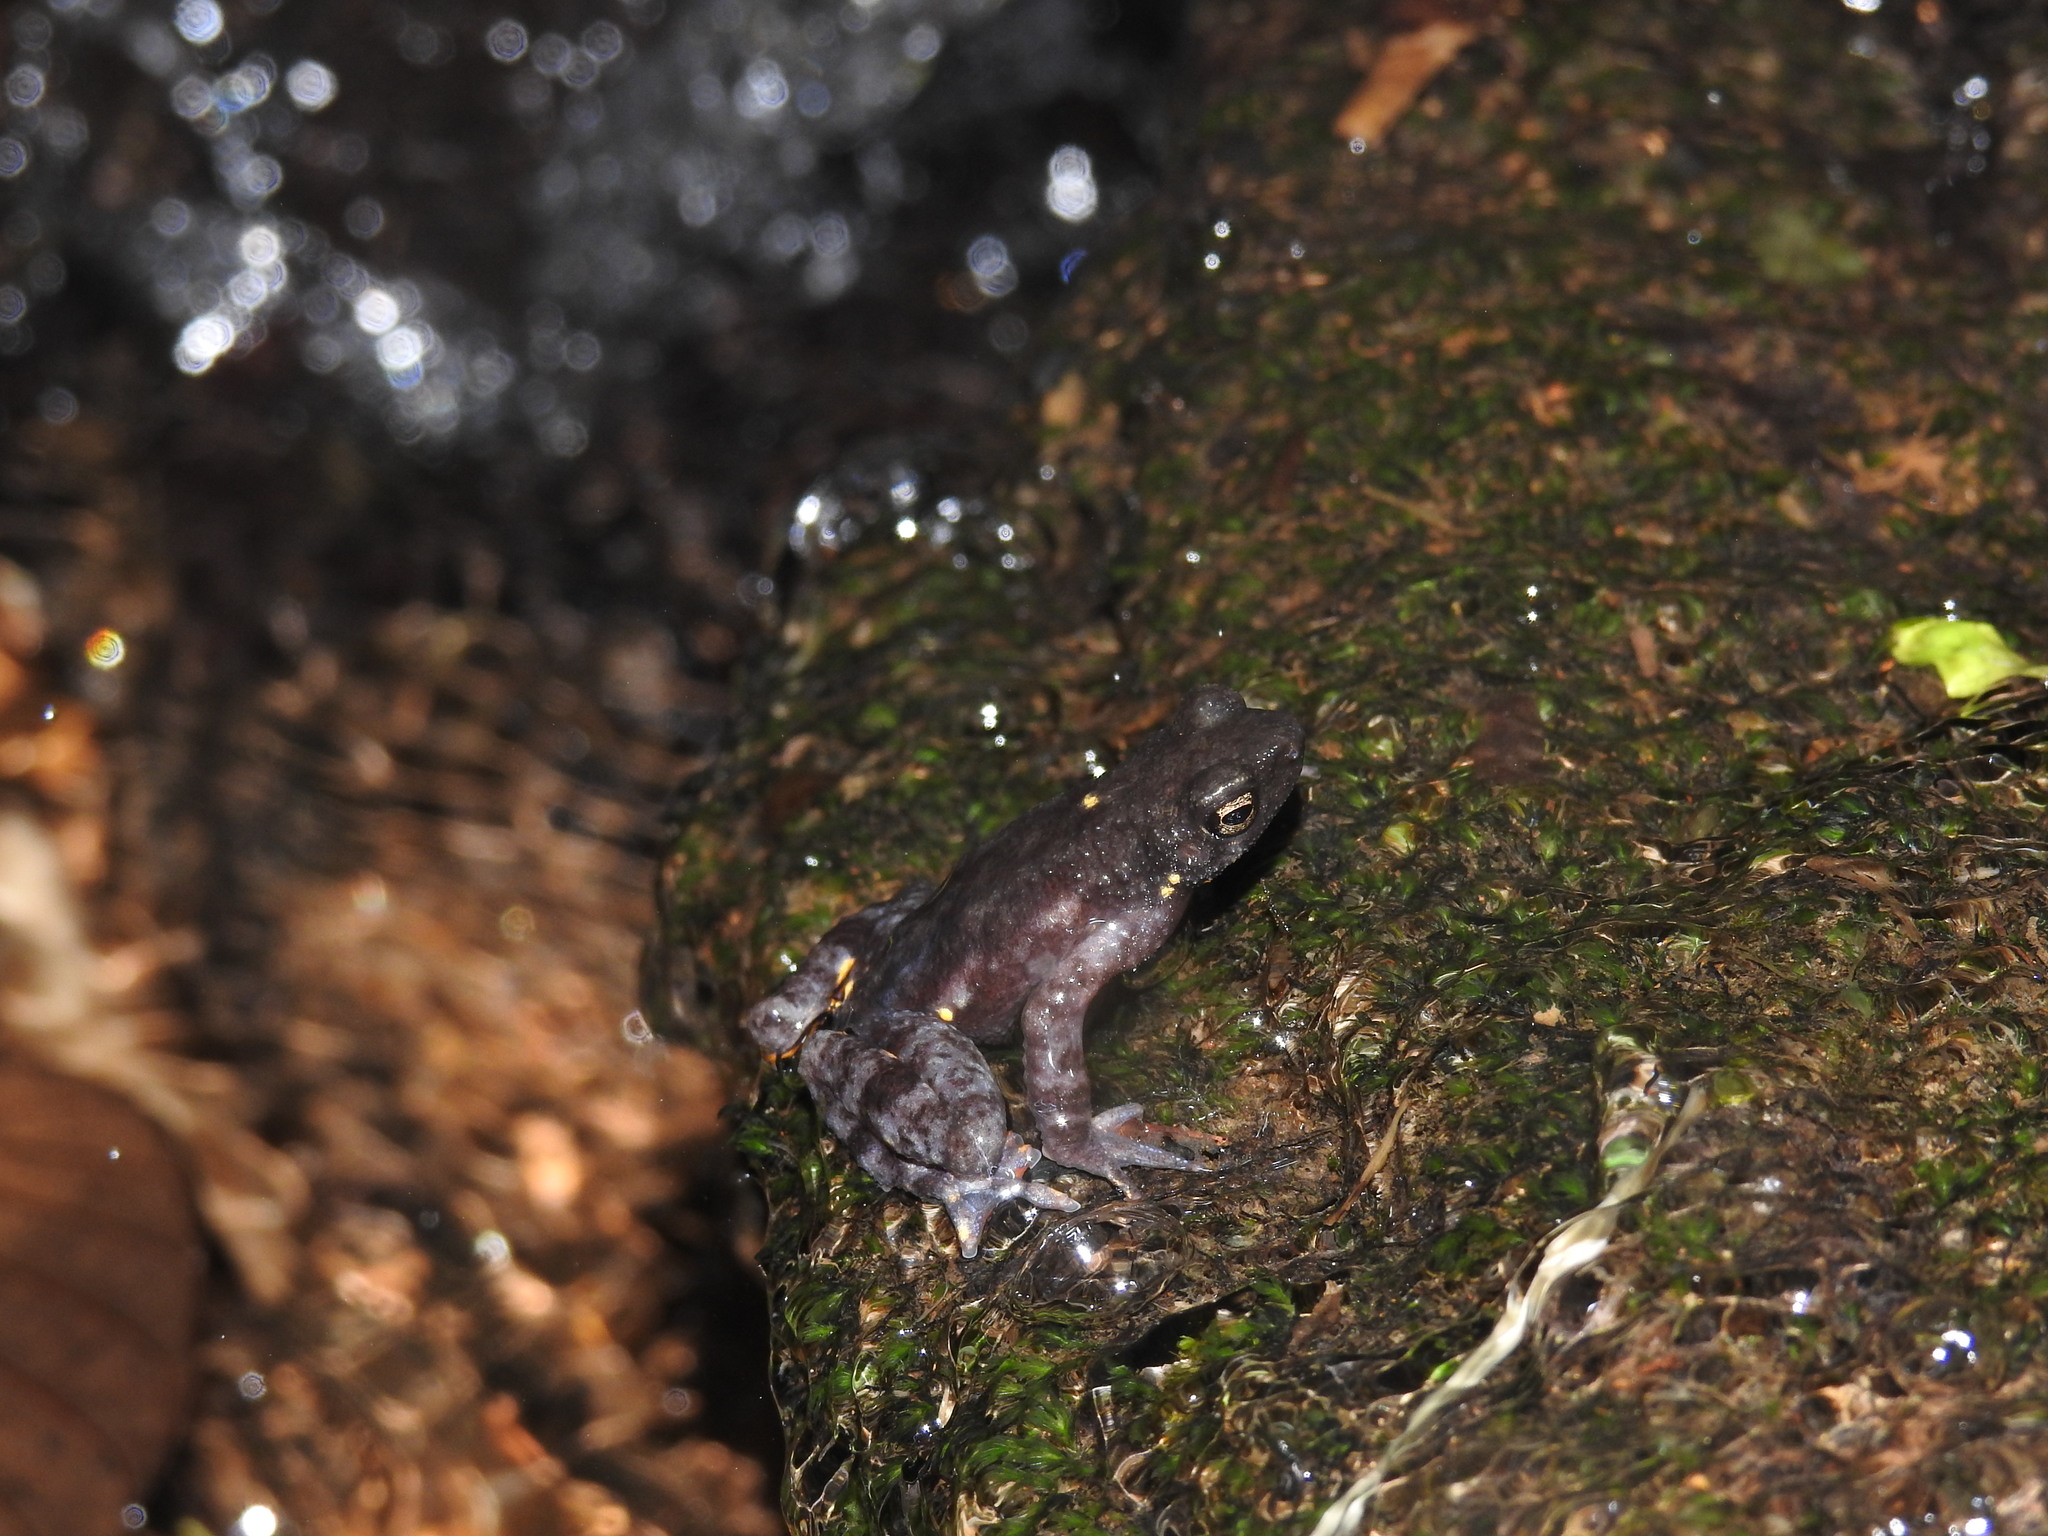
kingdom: Animalia
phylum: Chordata
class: Amphibia
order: Anura
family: Bufonidae
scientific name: Bufonidae
